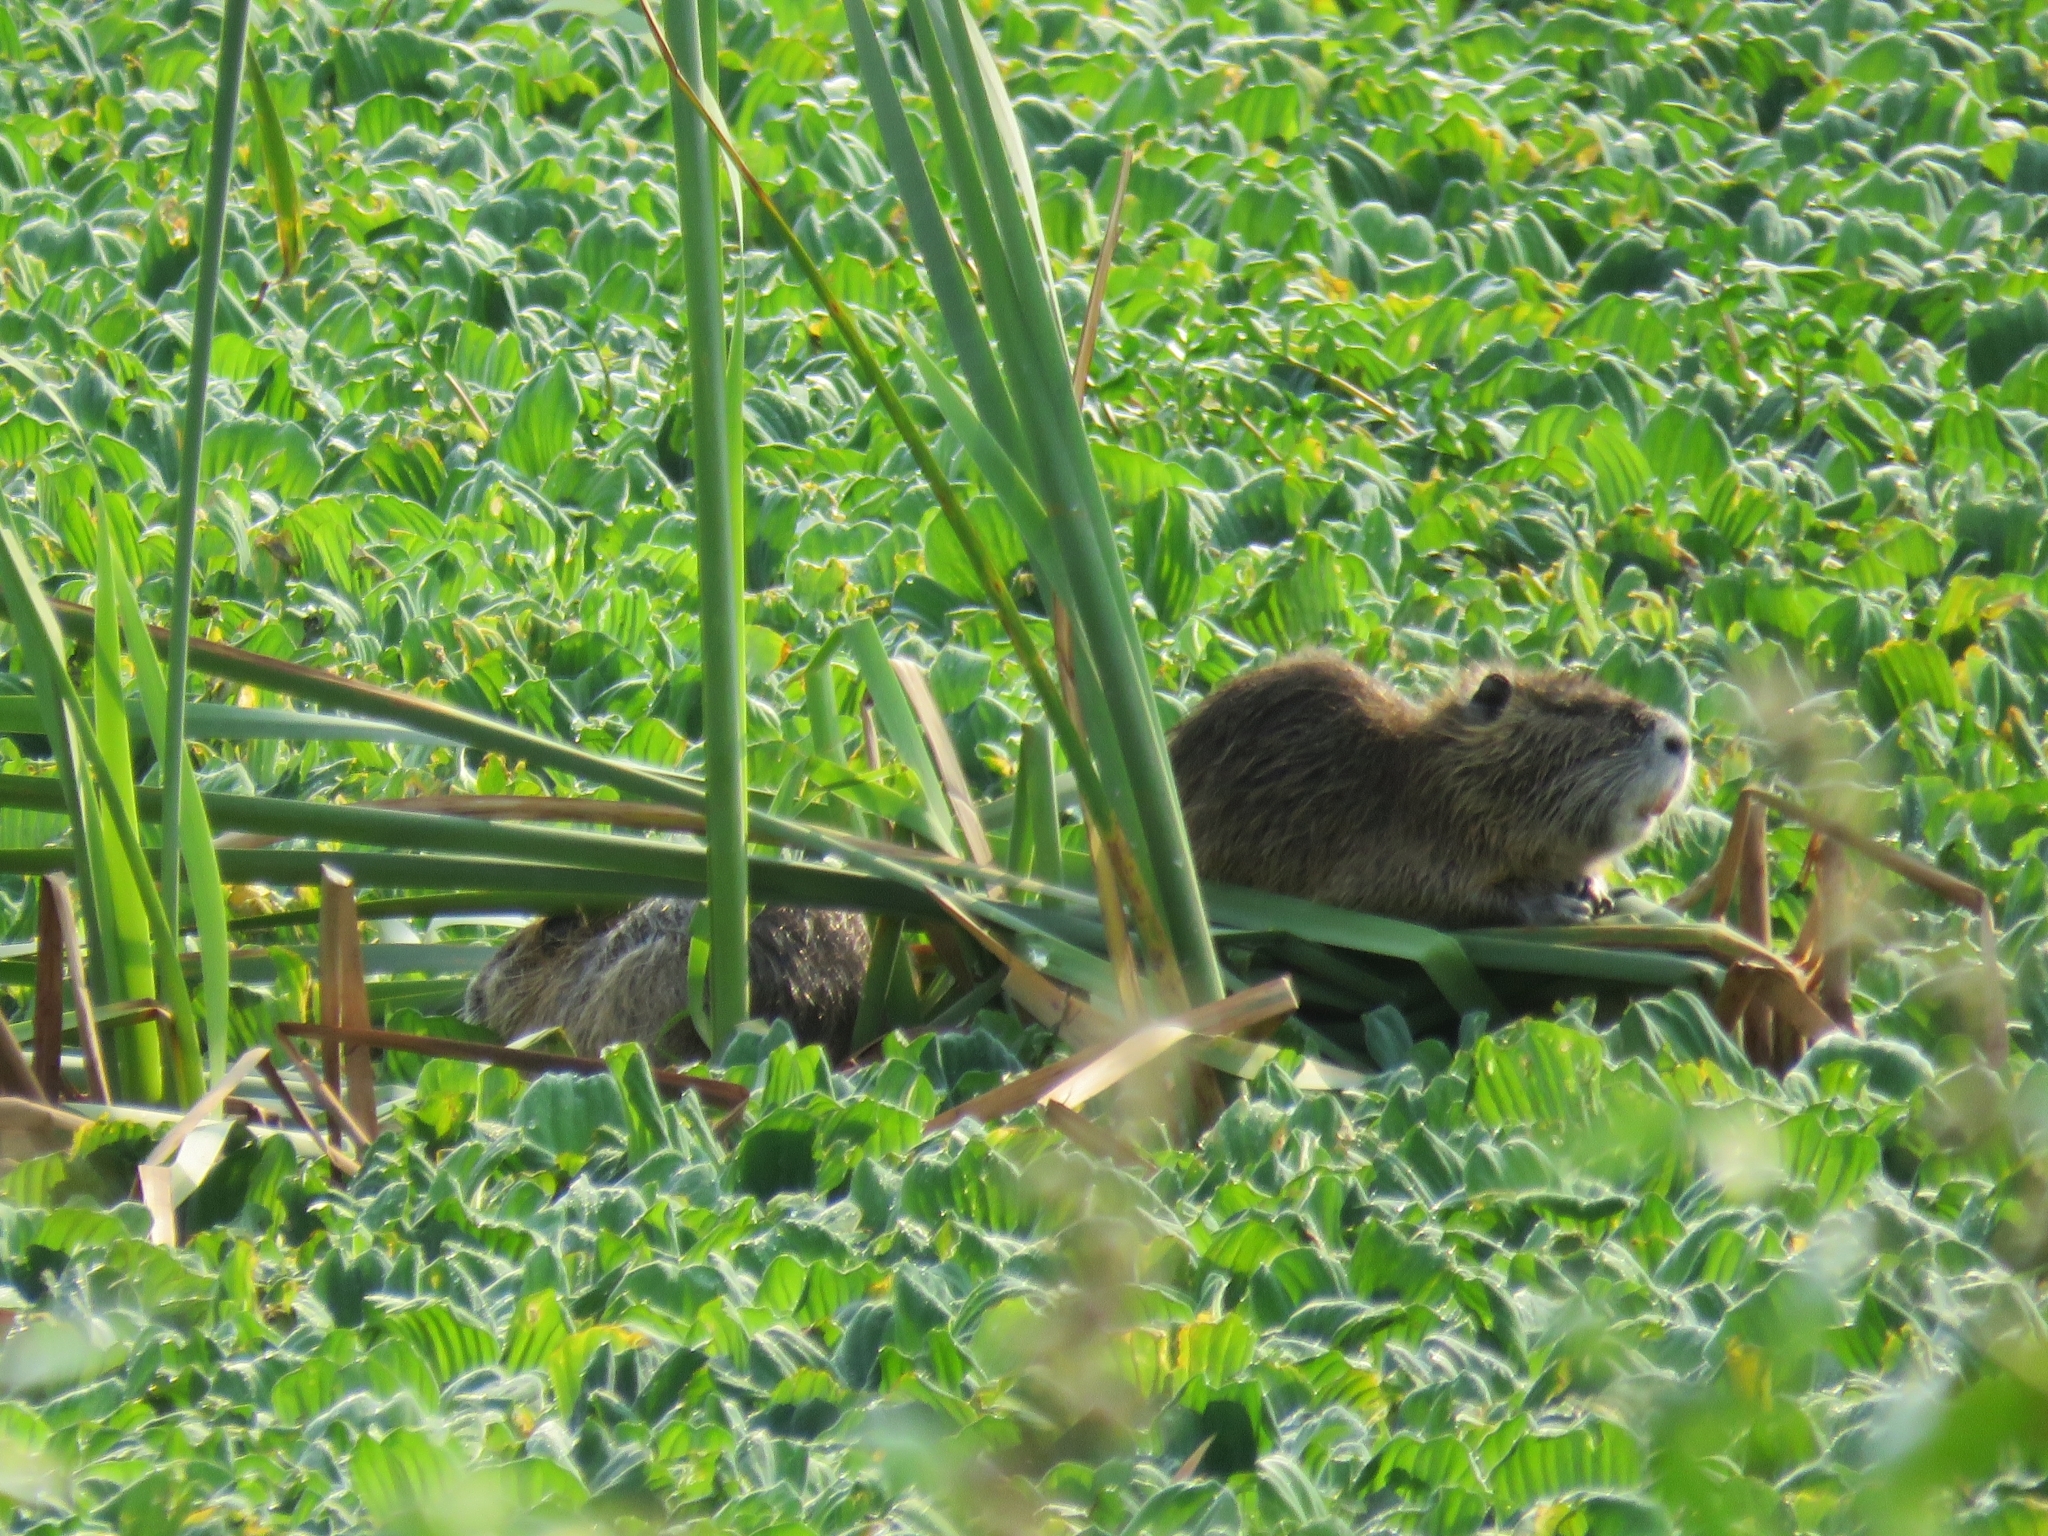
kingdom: Animalia
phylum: Chordata
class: Mammalia
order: Rodentia
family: Myocastoridae
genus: Myocastor
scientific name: Myocastor coypus
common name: Coypu
